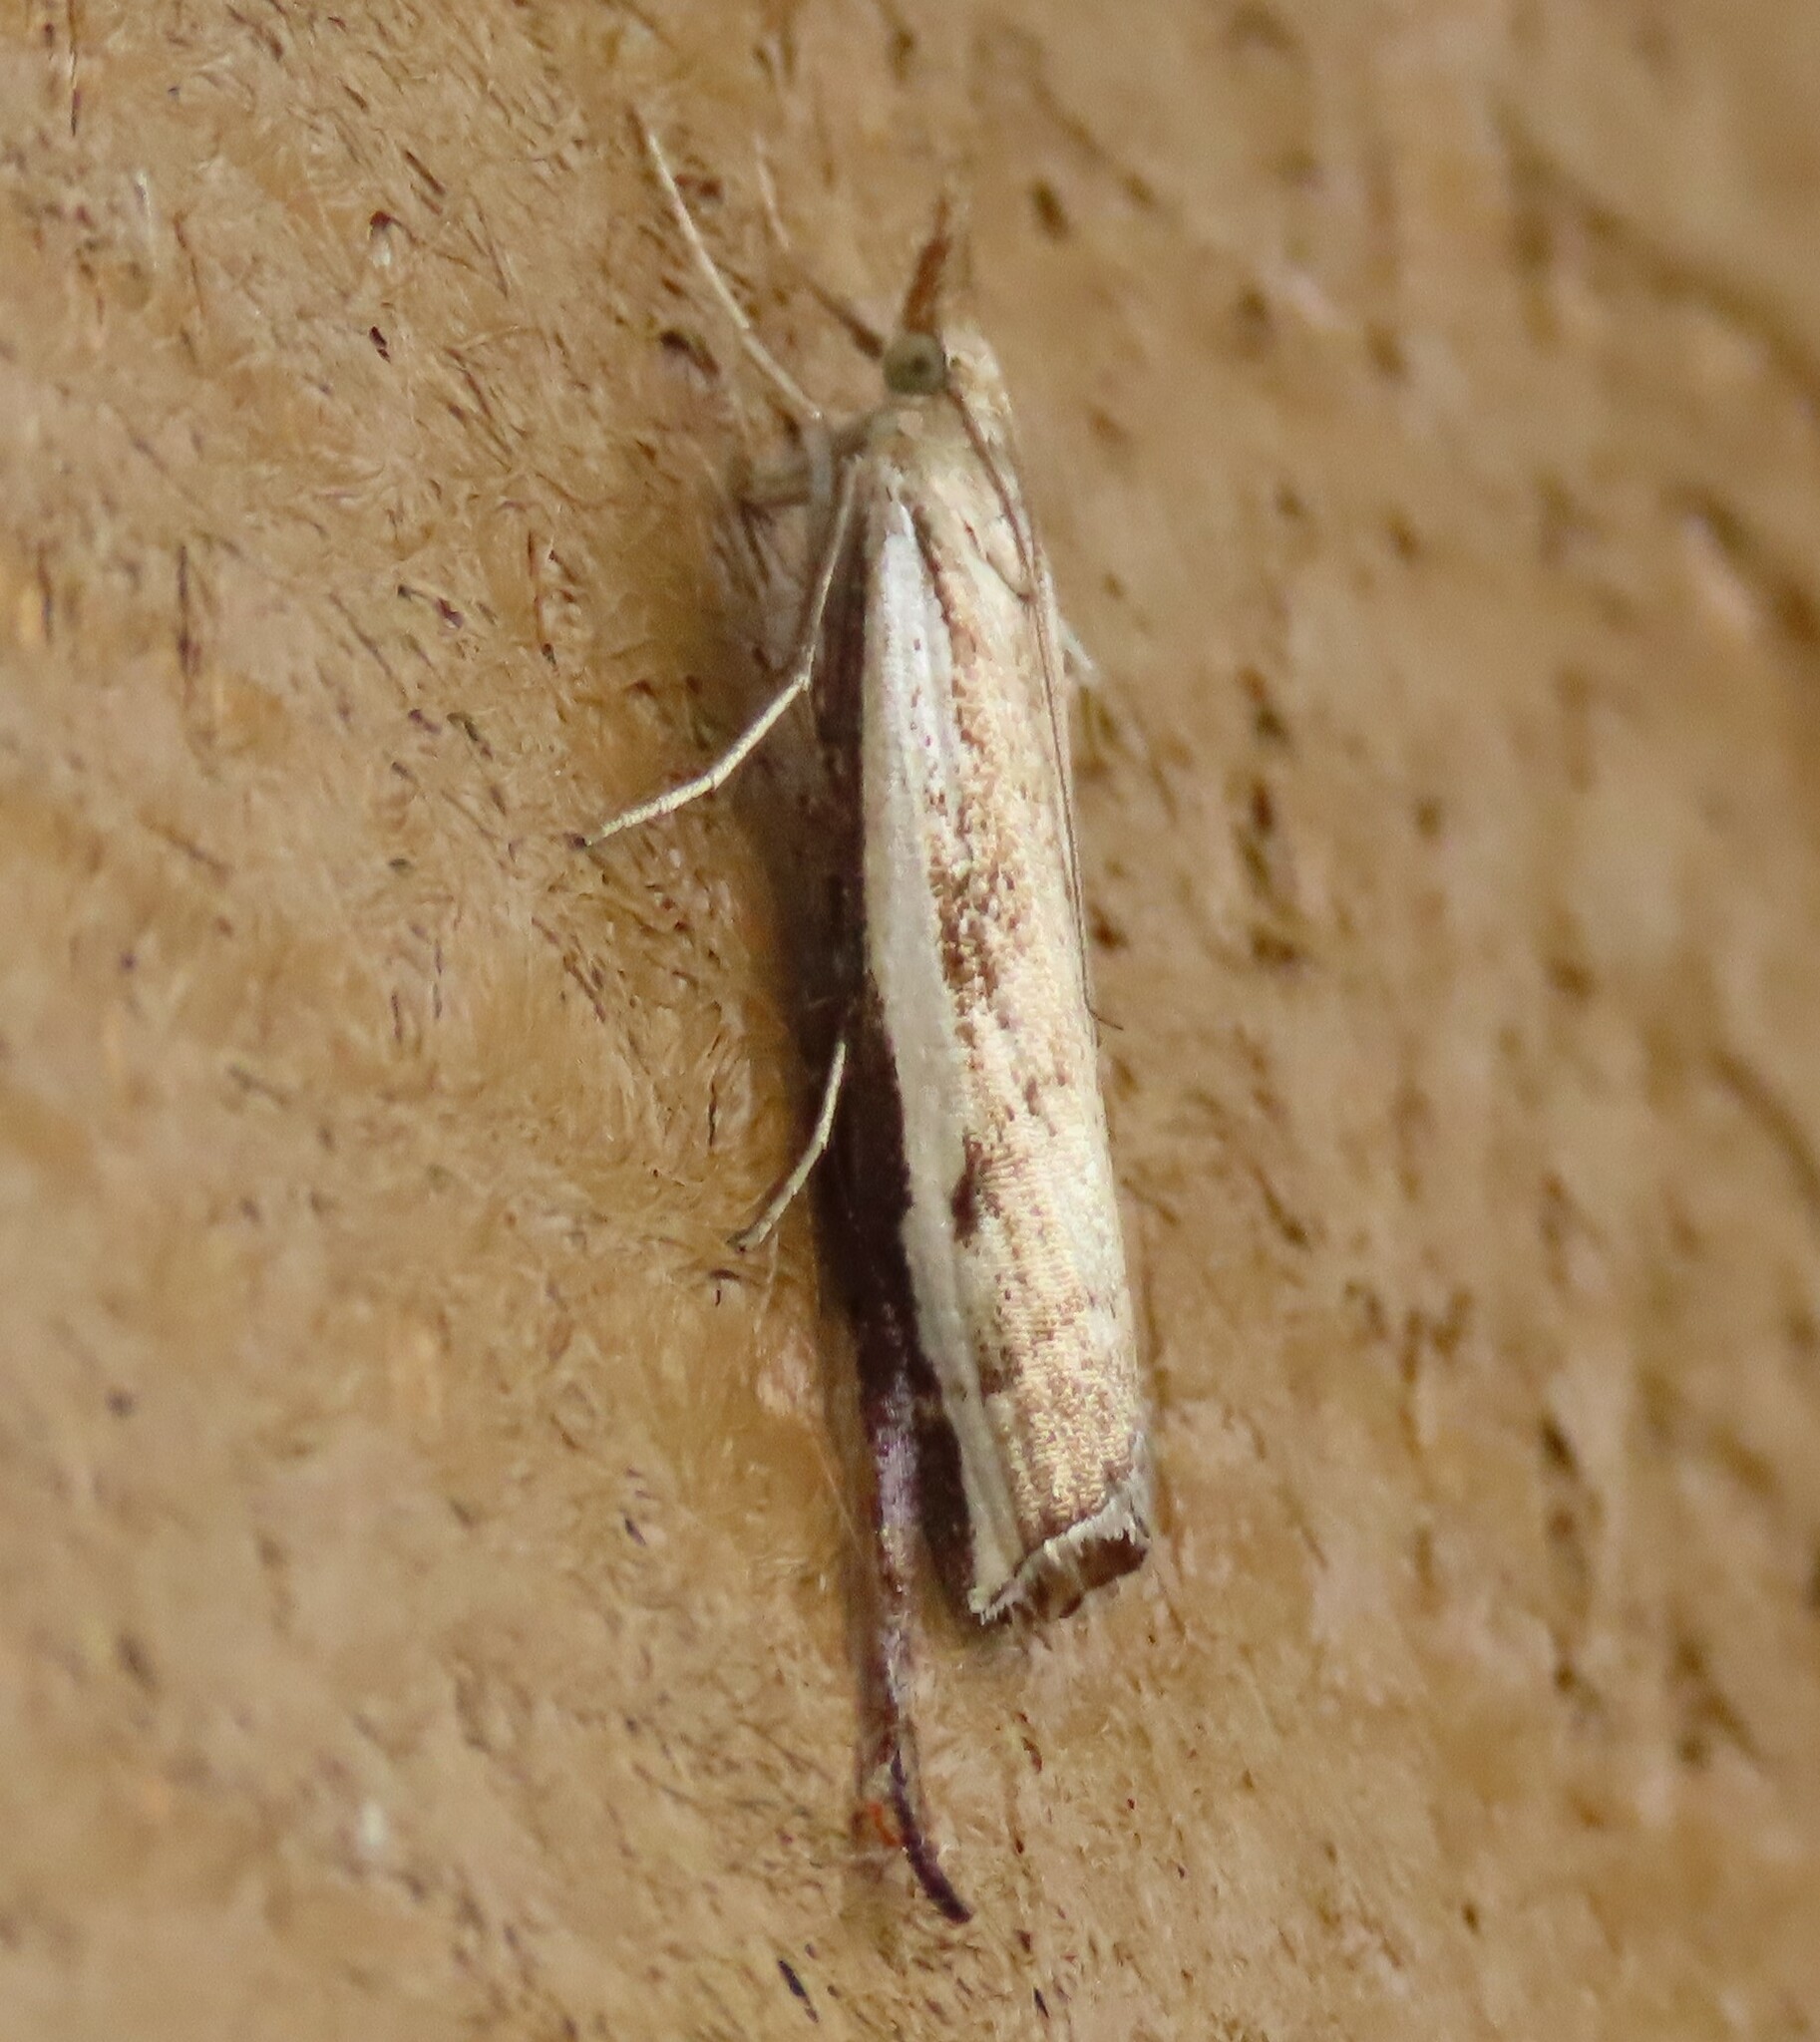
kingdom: Animalia
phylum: Arthropoda
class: Insecta
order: Lepidoptera
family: Crambidae
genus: Orocrambus
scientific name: Orocrambus flexuosellus
